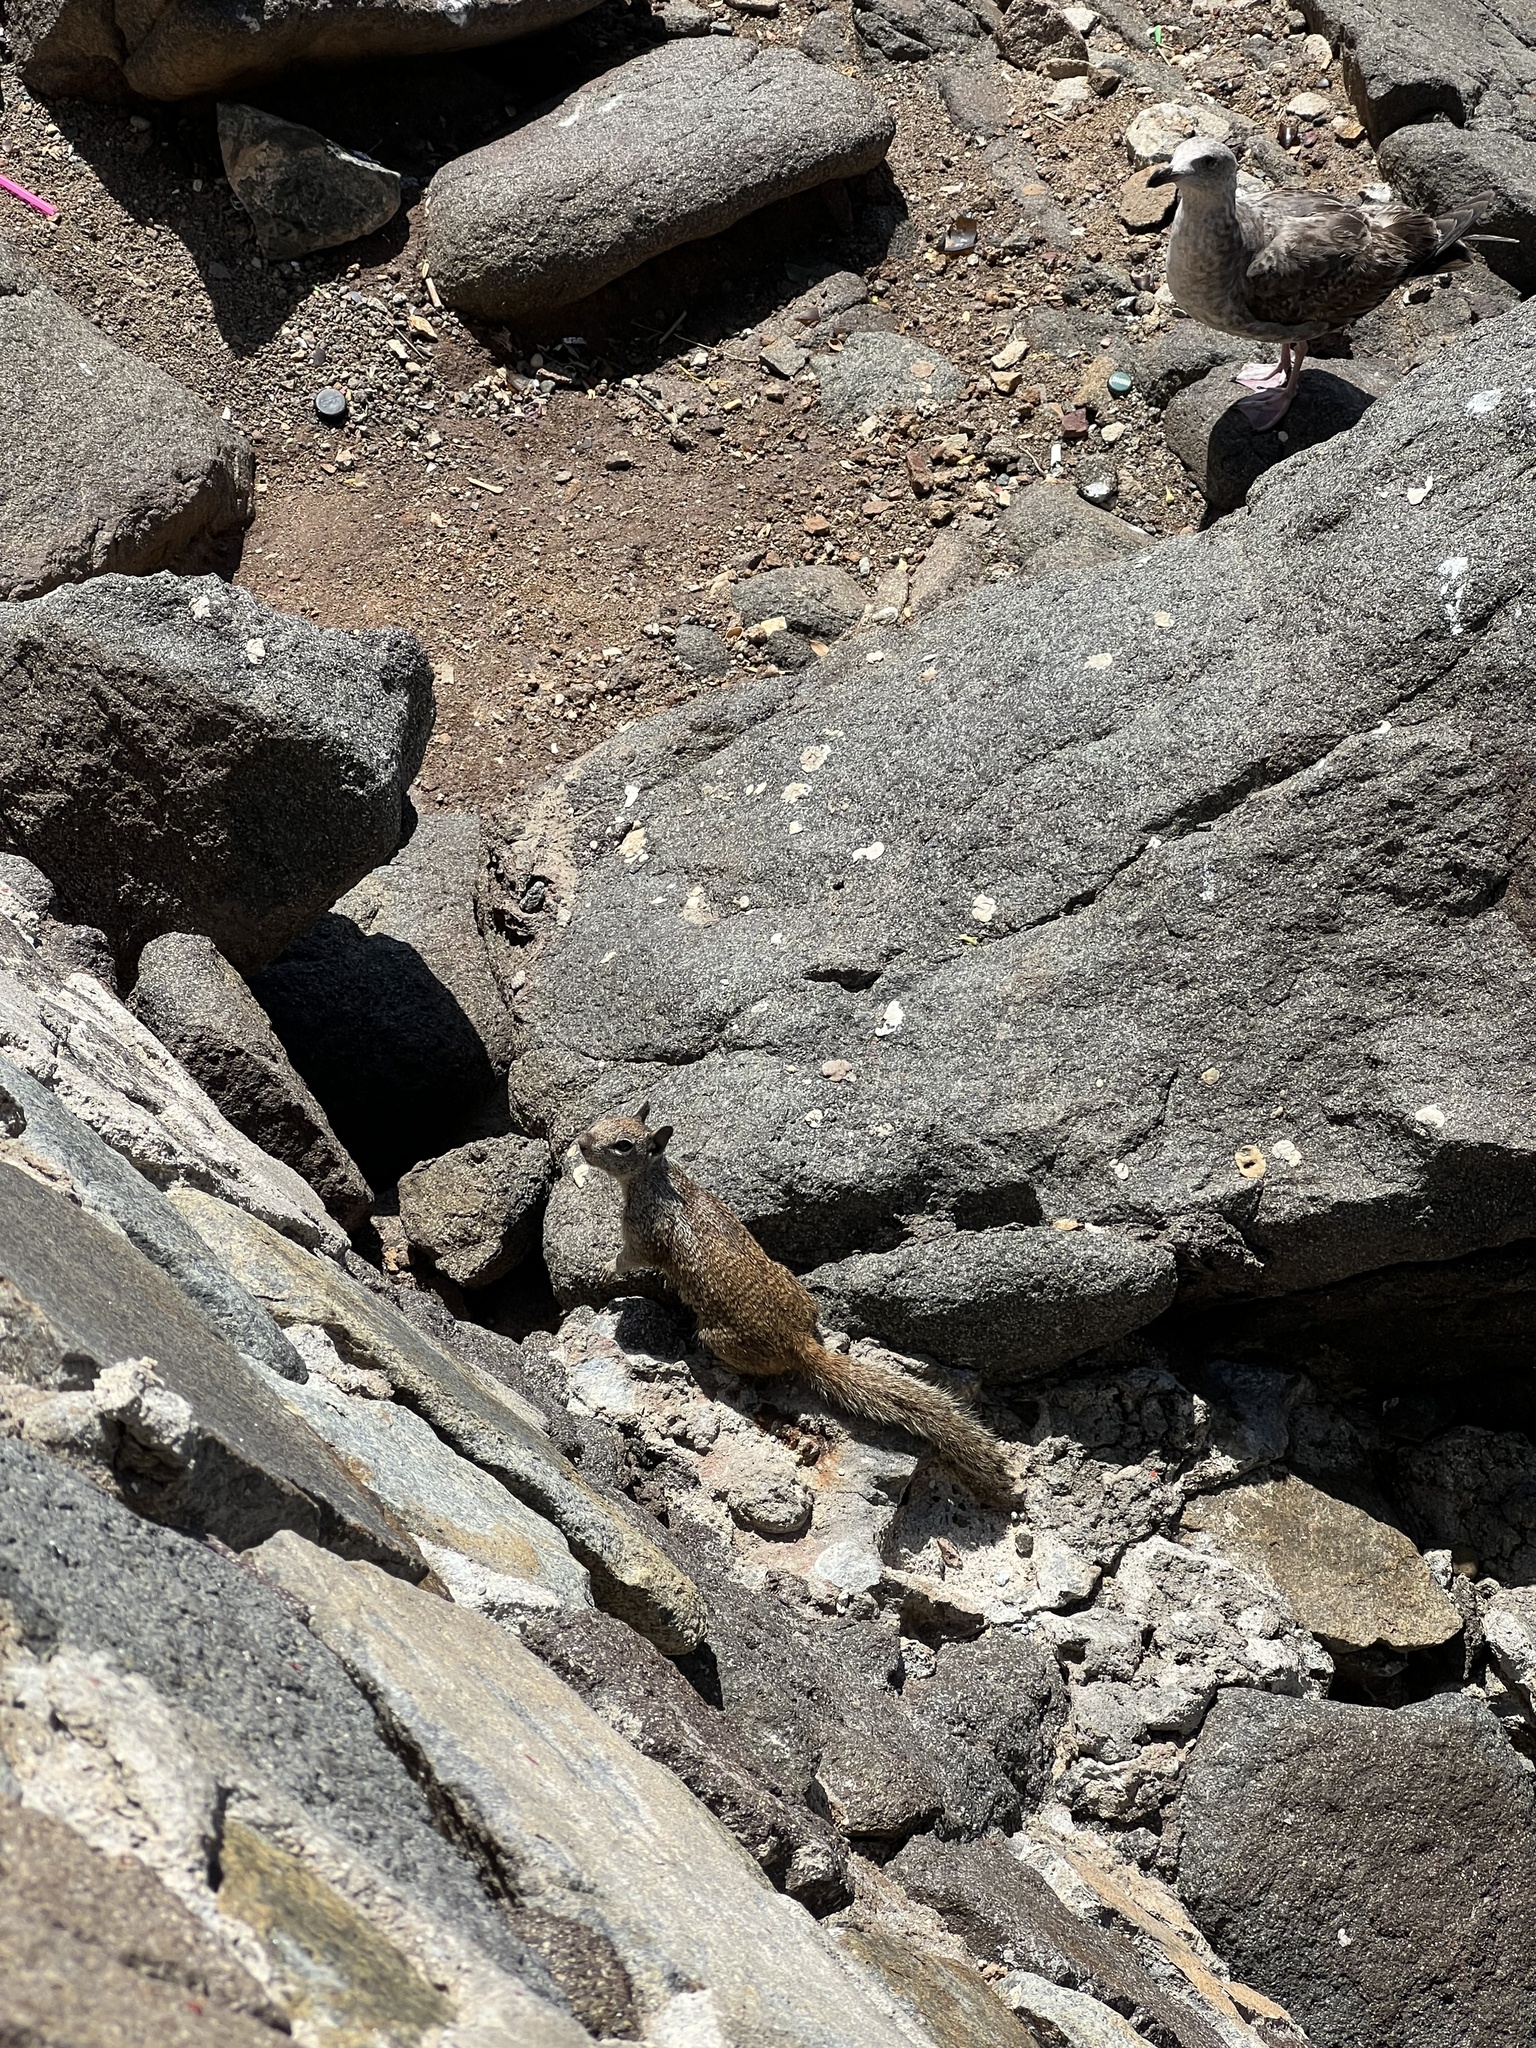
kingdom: Animalia
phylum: Chordata
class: Mammalia
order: Rodentia
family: Sciuridae
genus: Otospermophilus
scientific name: Otospermophilus beecheyi
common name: California ground squirrel
